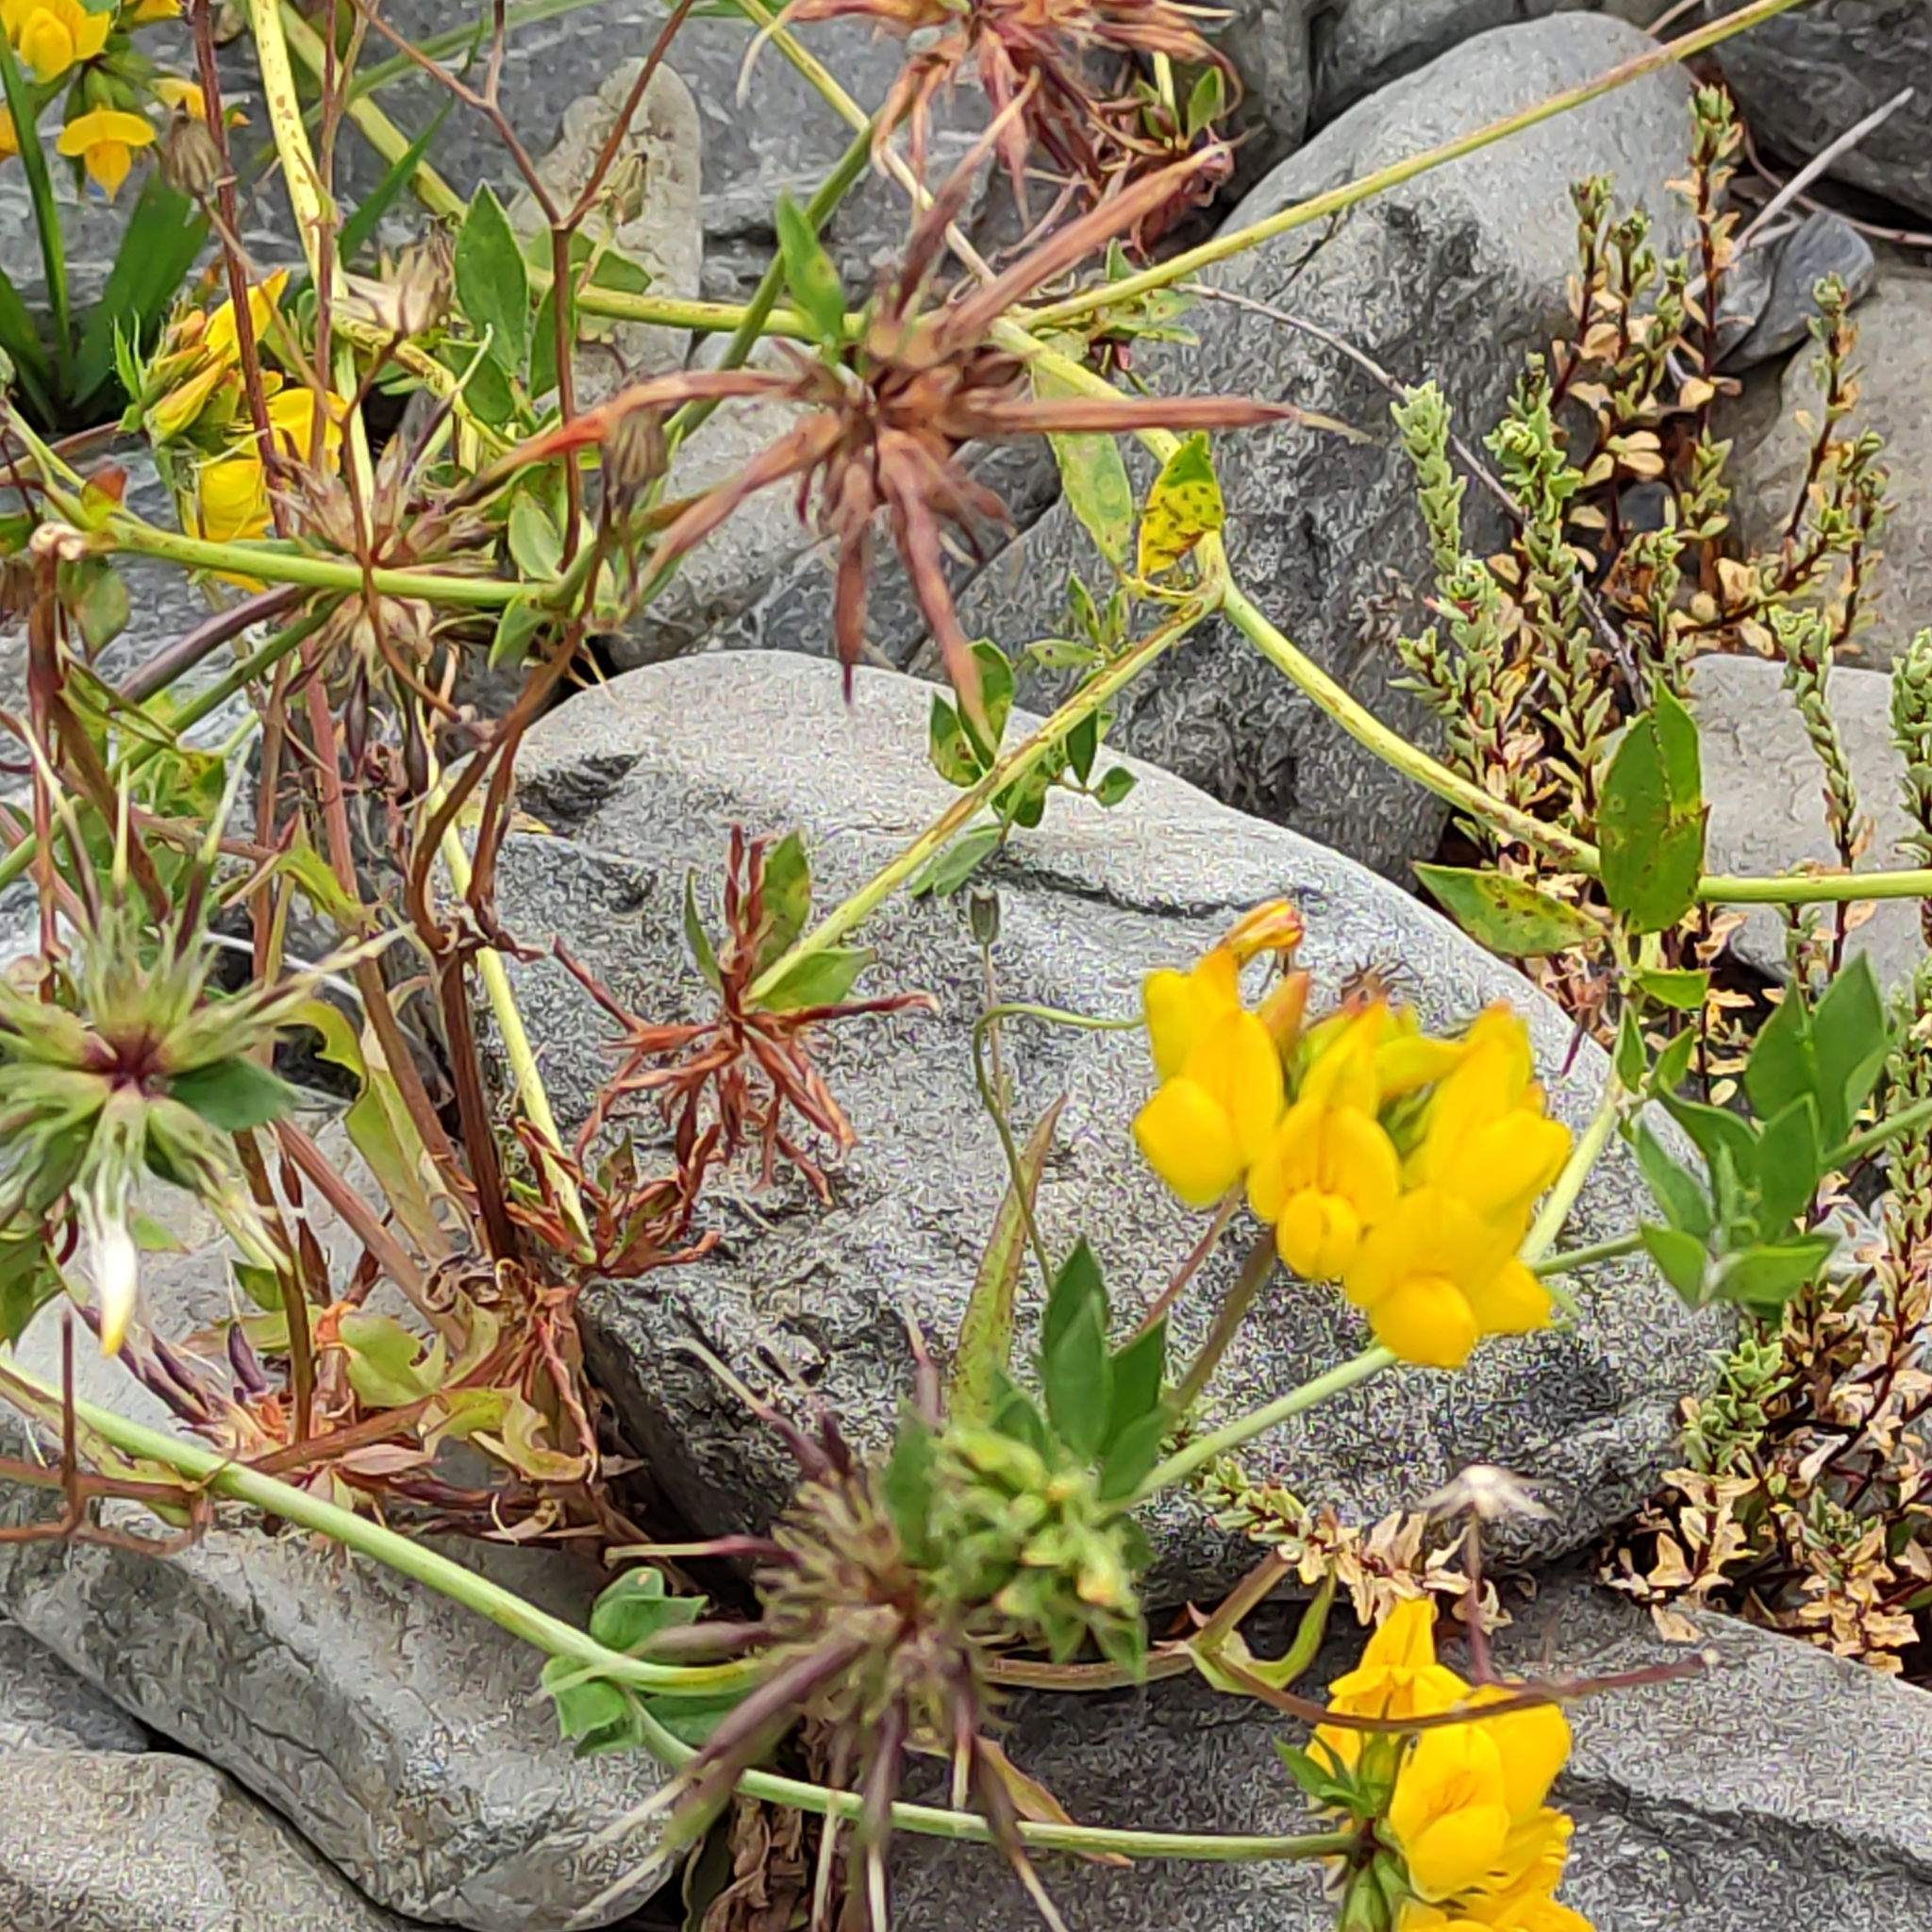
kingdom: Plantae
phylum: Tracheophyta
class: Magnoliopsida
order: Fabales
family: Fabaceae
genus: Lotus
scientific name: Lotus pedunculatus
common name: Greater birdsfoot-trefoil
